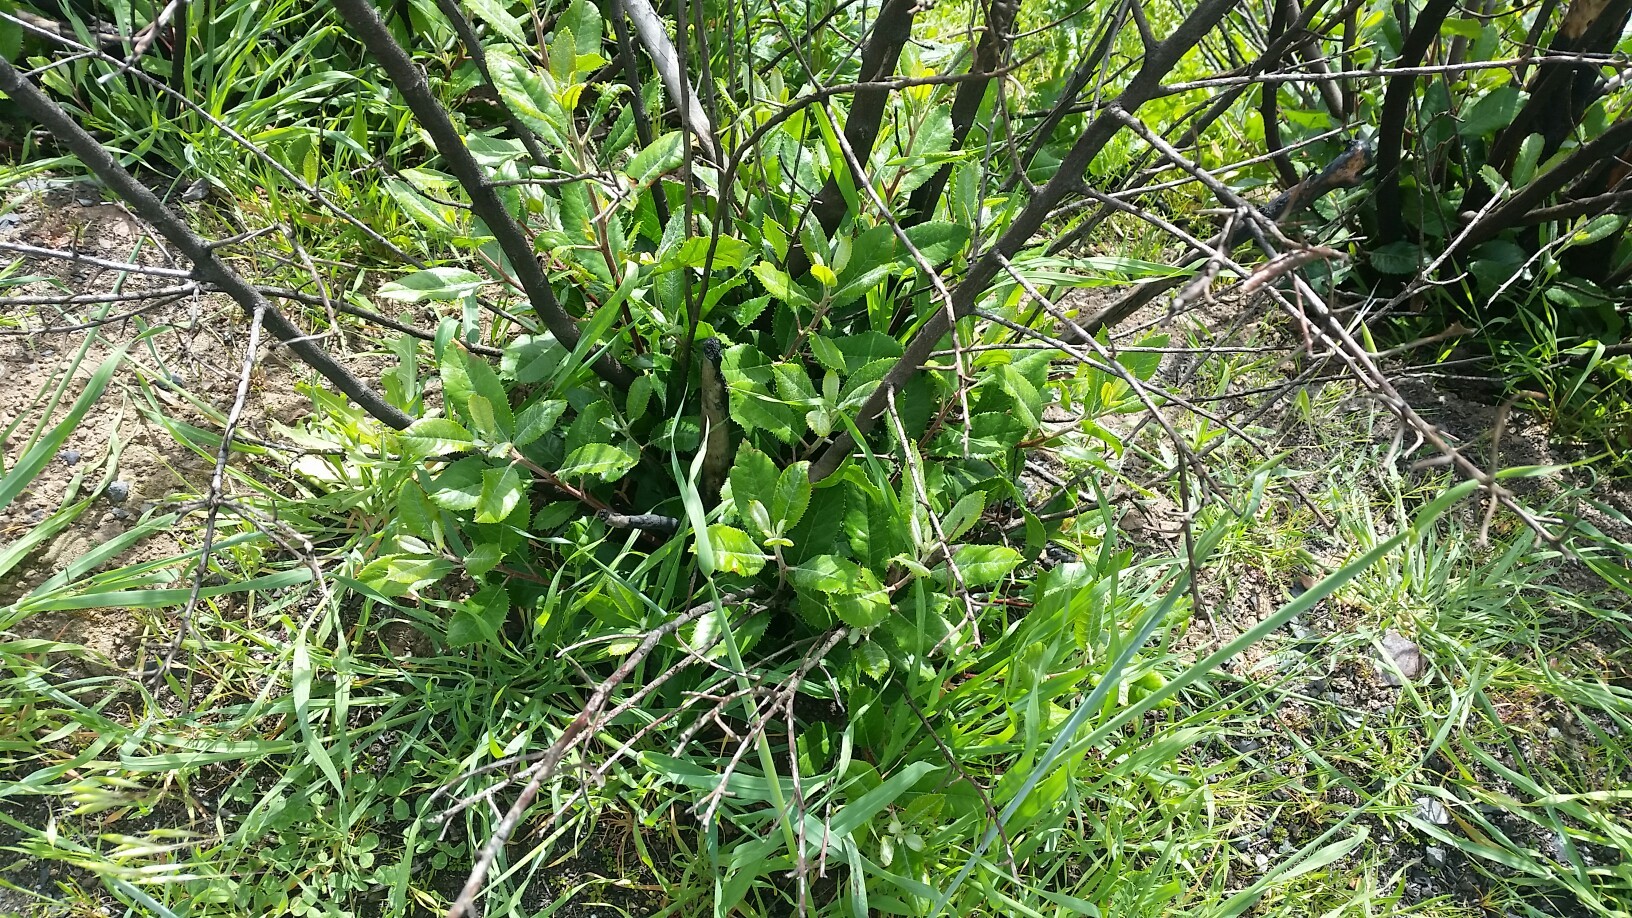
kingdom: Plantae
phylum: Tracheophyta
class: Magnoliopsida
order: Rosales
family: Rosaceae
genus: Heteromeles
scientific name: Heteromeles arbutifolia
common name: California-holly
